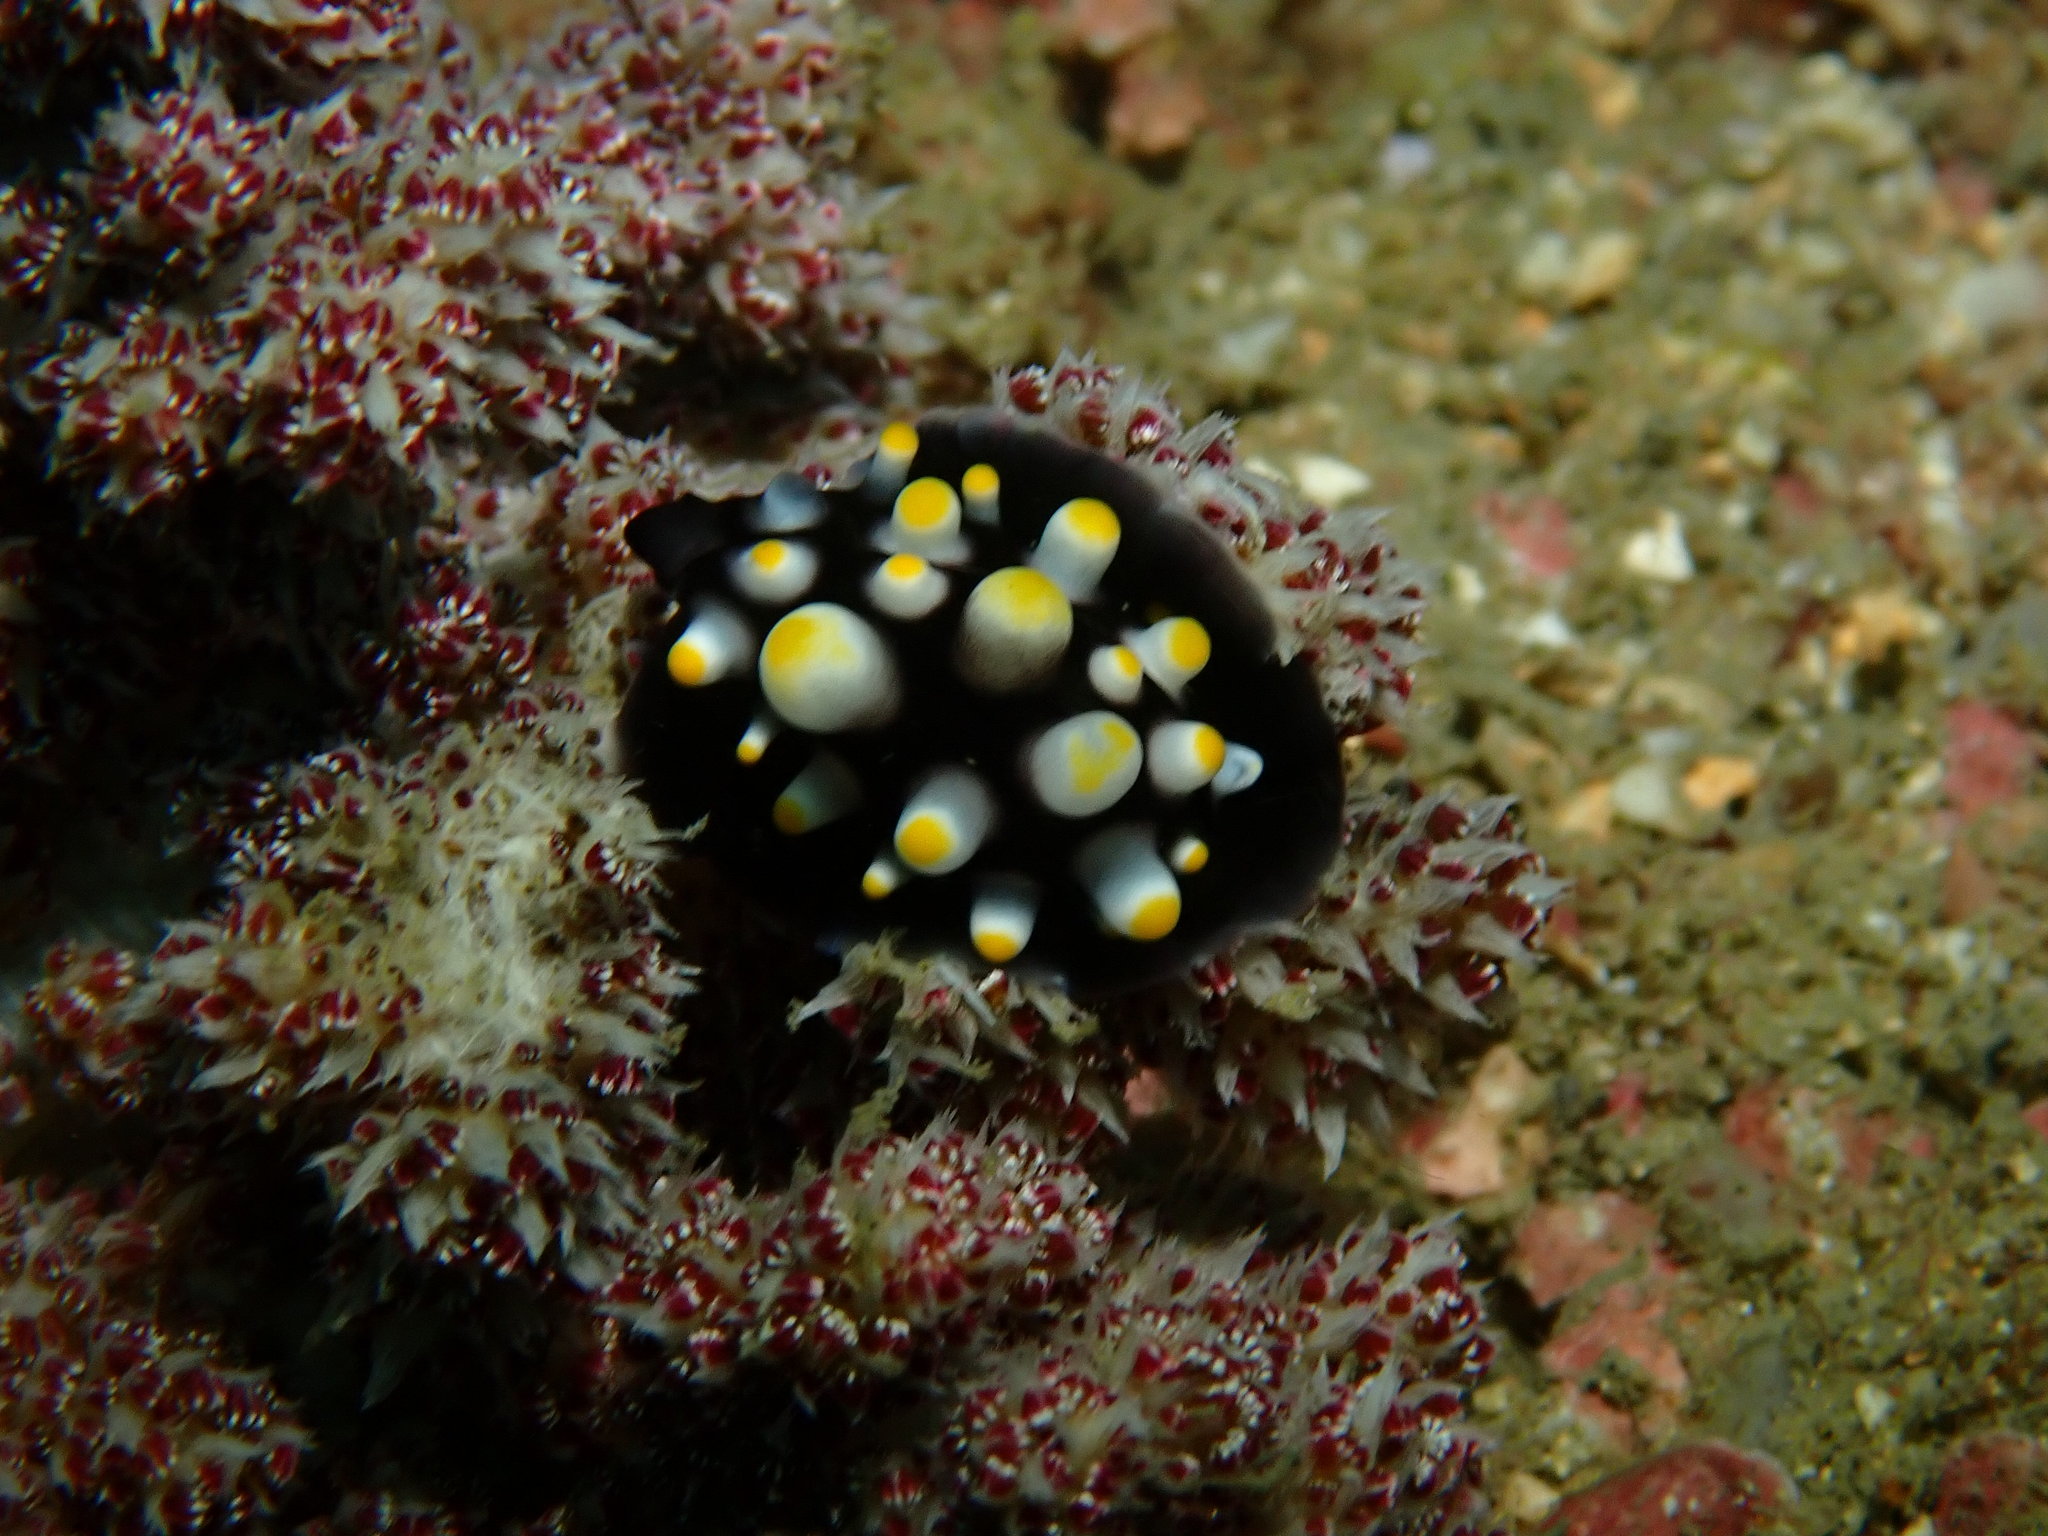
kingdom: Animalia
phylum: Mollusca
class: Gastropoda
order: Littorinimorpha
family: Ovulidae
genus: Ovula
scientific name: Ovula ovum
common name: Common egg cowrie
